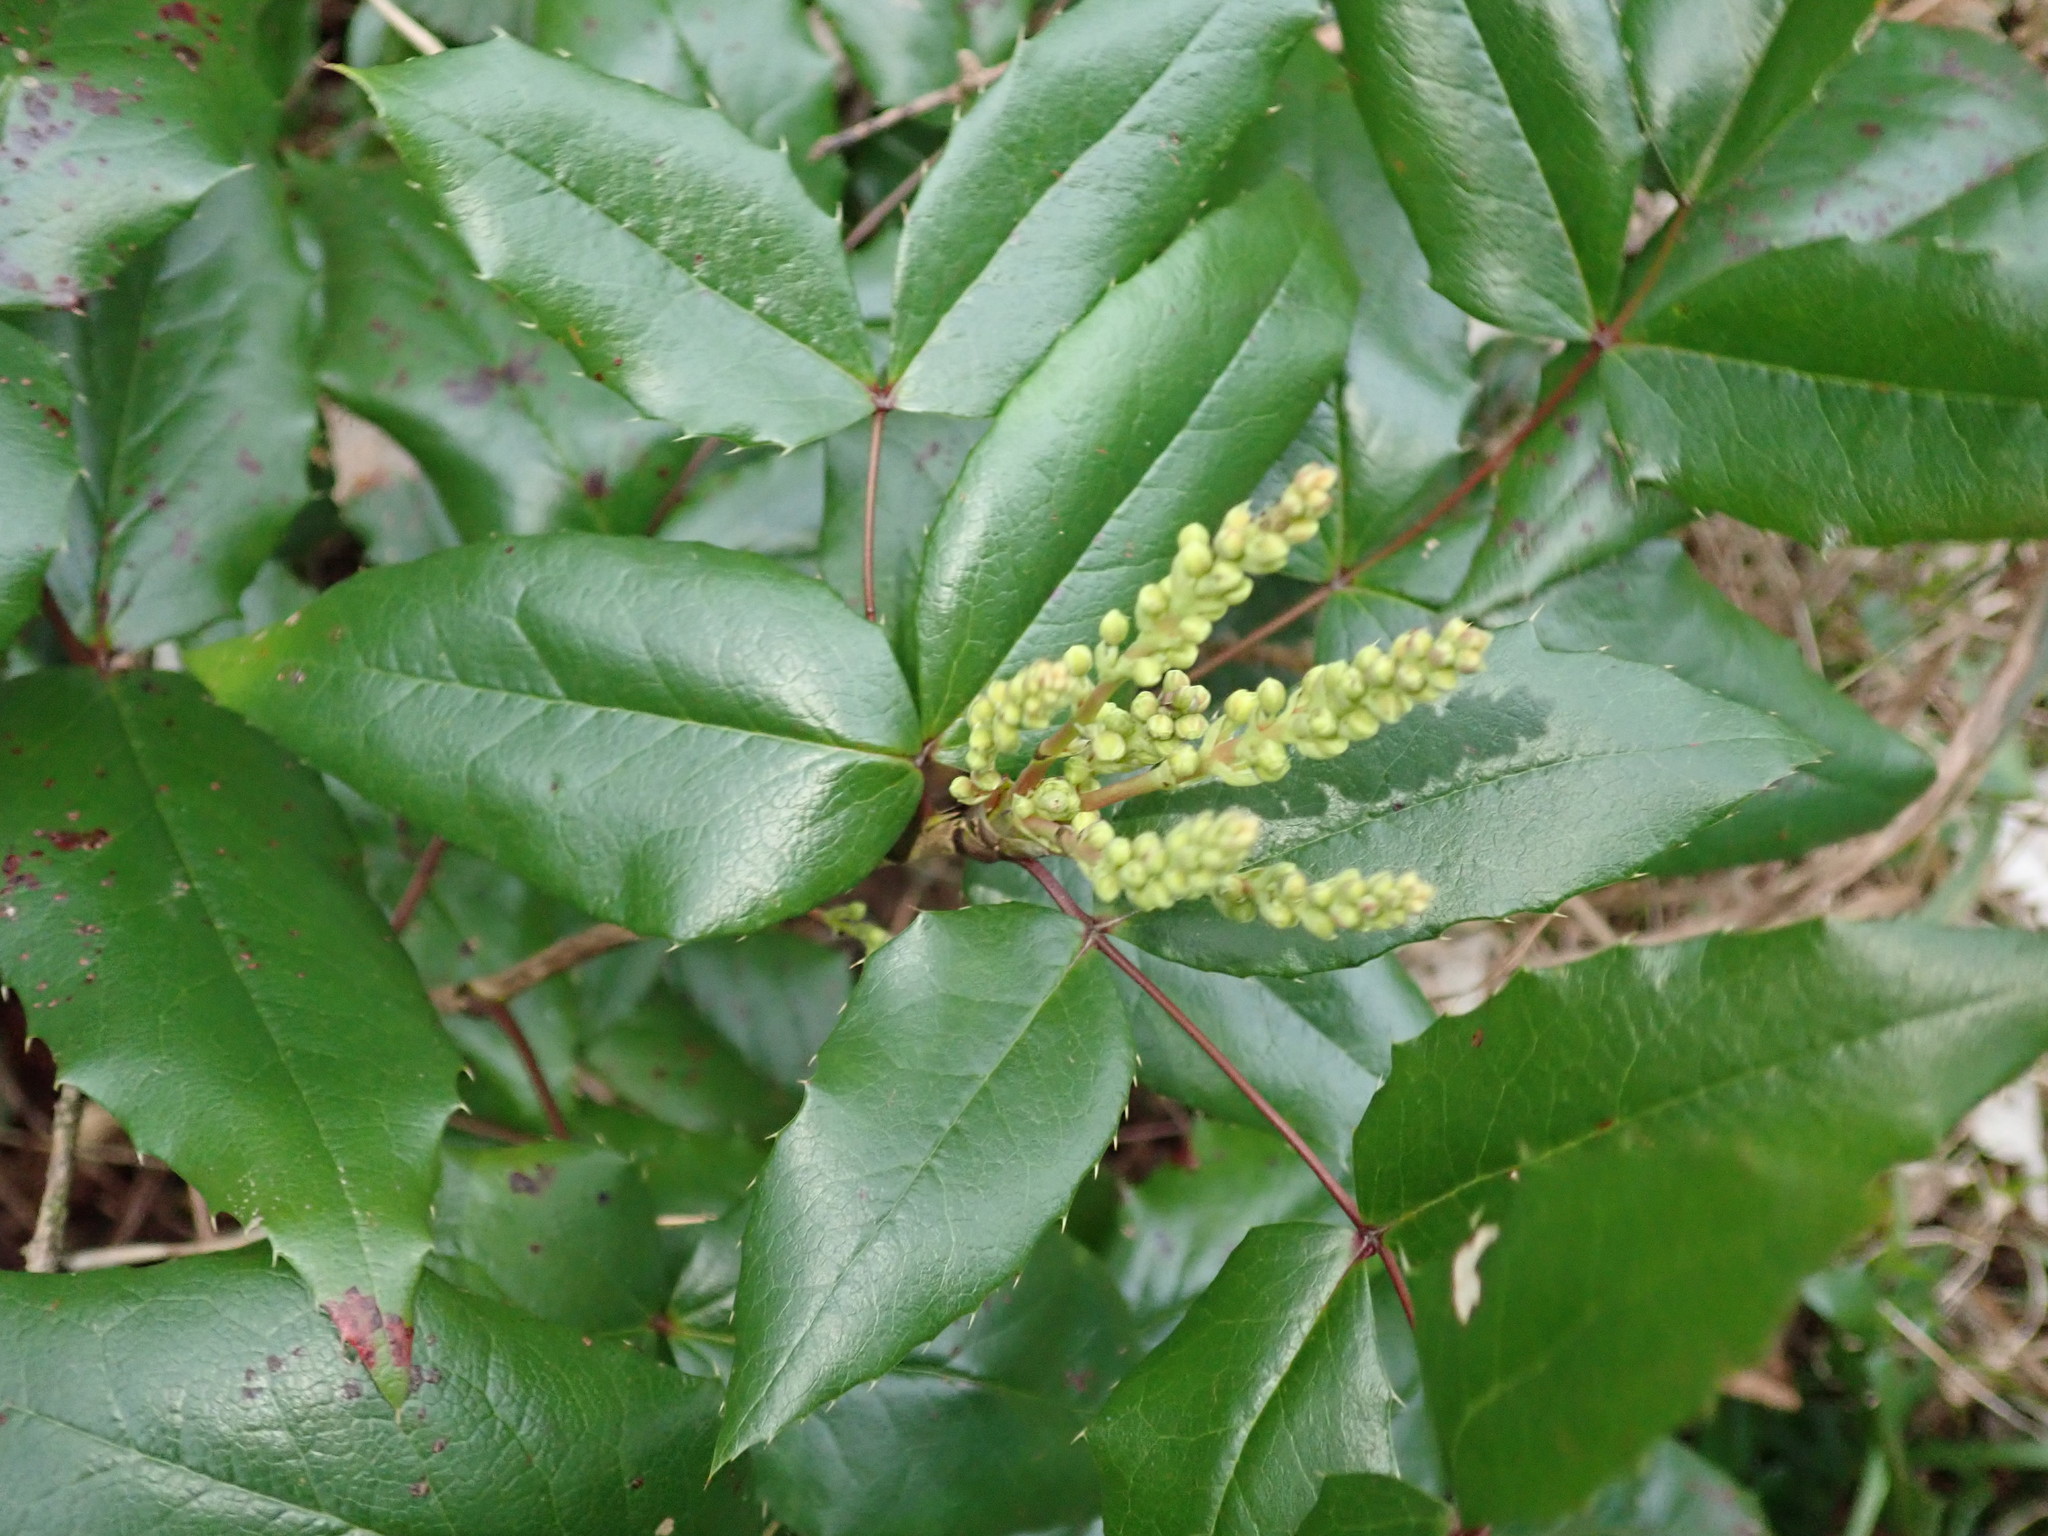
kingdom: Plantae
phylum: Tracheophyta
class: Magnoliopsida
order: Ranunculales
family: Berberidaceae
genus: Mahonia
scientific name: Mahonia aquifolium
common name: Oregon-grape
